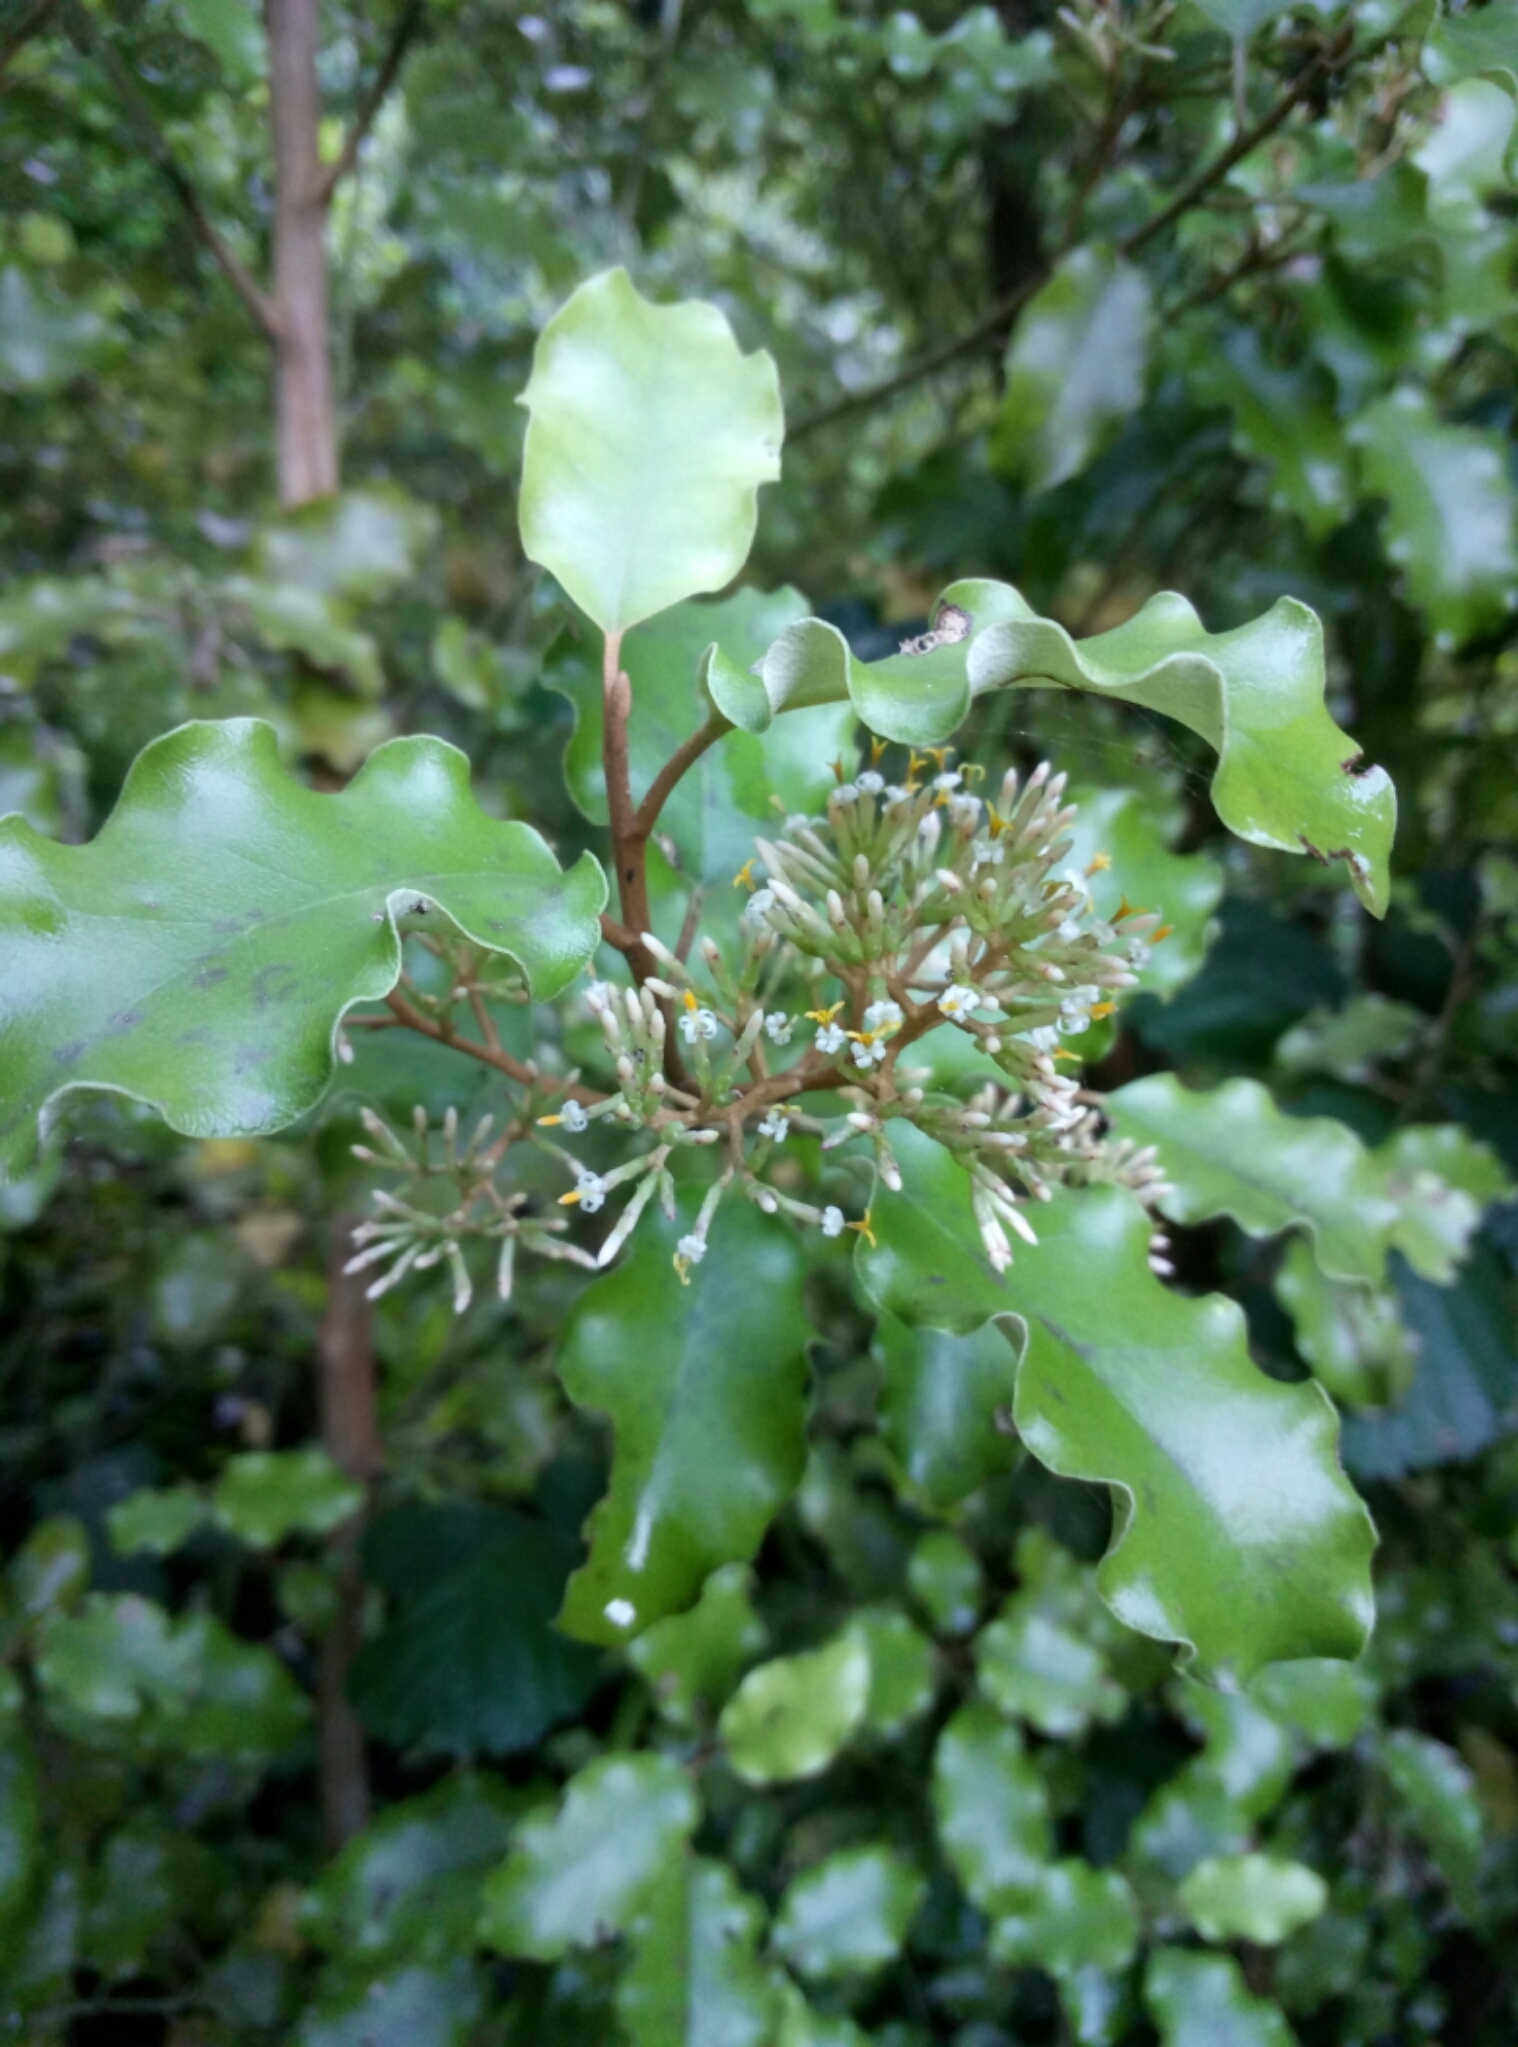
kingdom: Plantae
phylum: Tracheophyta
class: Magnoliopsida
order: Asterales
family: Asteraceae
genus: Olearia
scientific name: Olearia paniculata
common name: Akiraho
